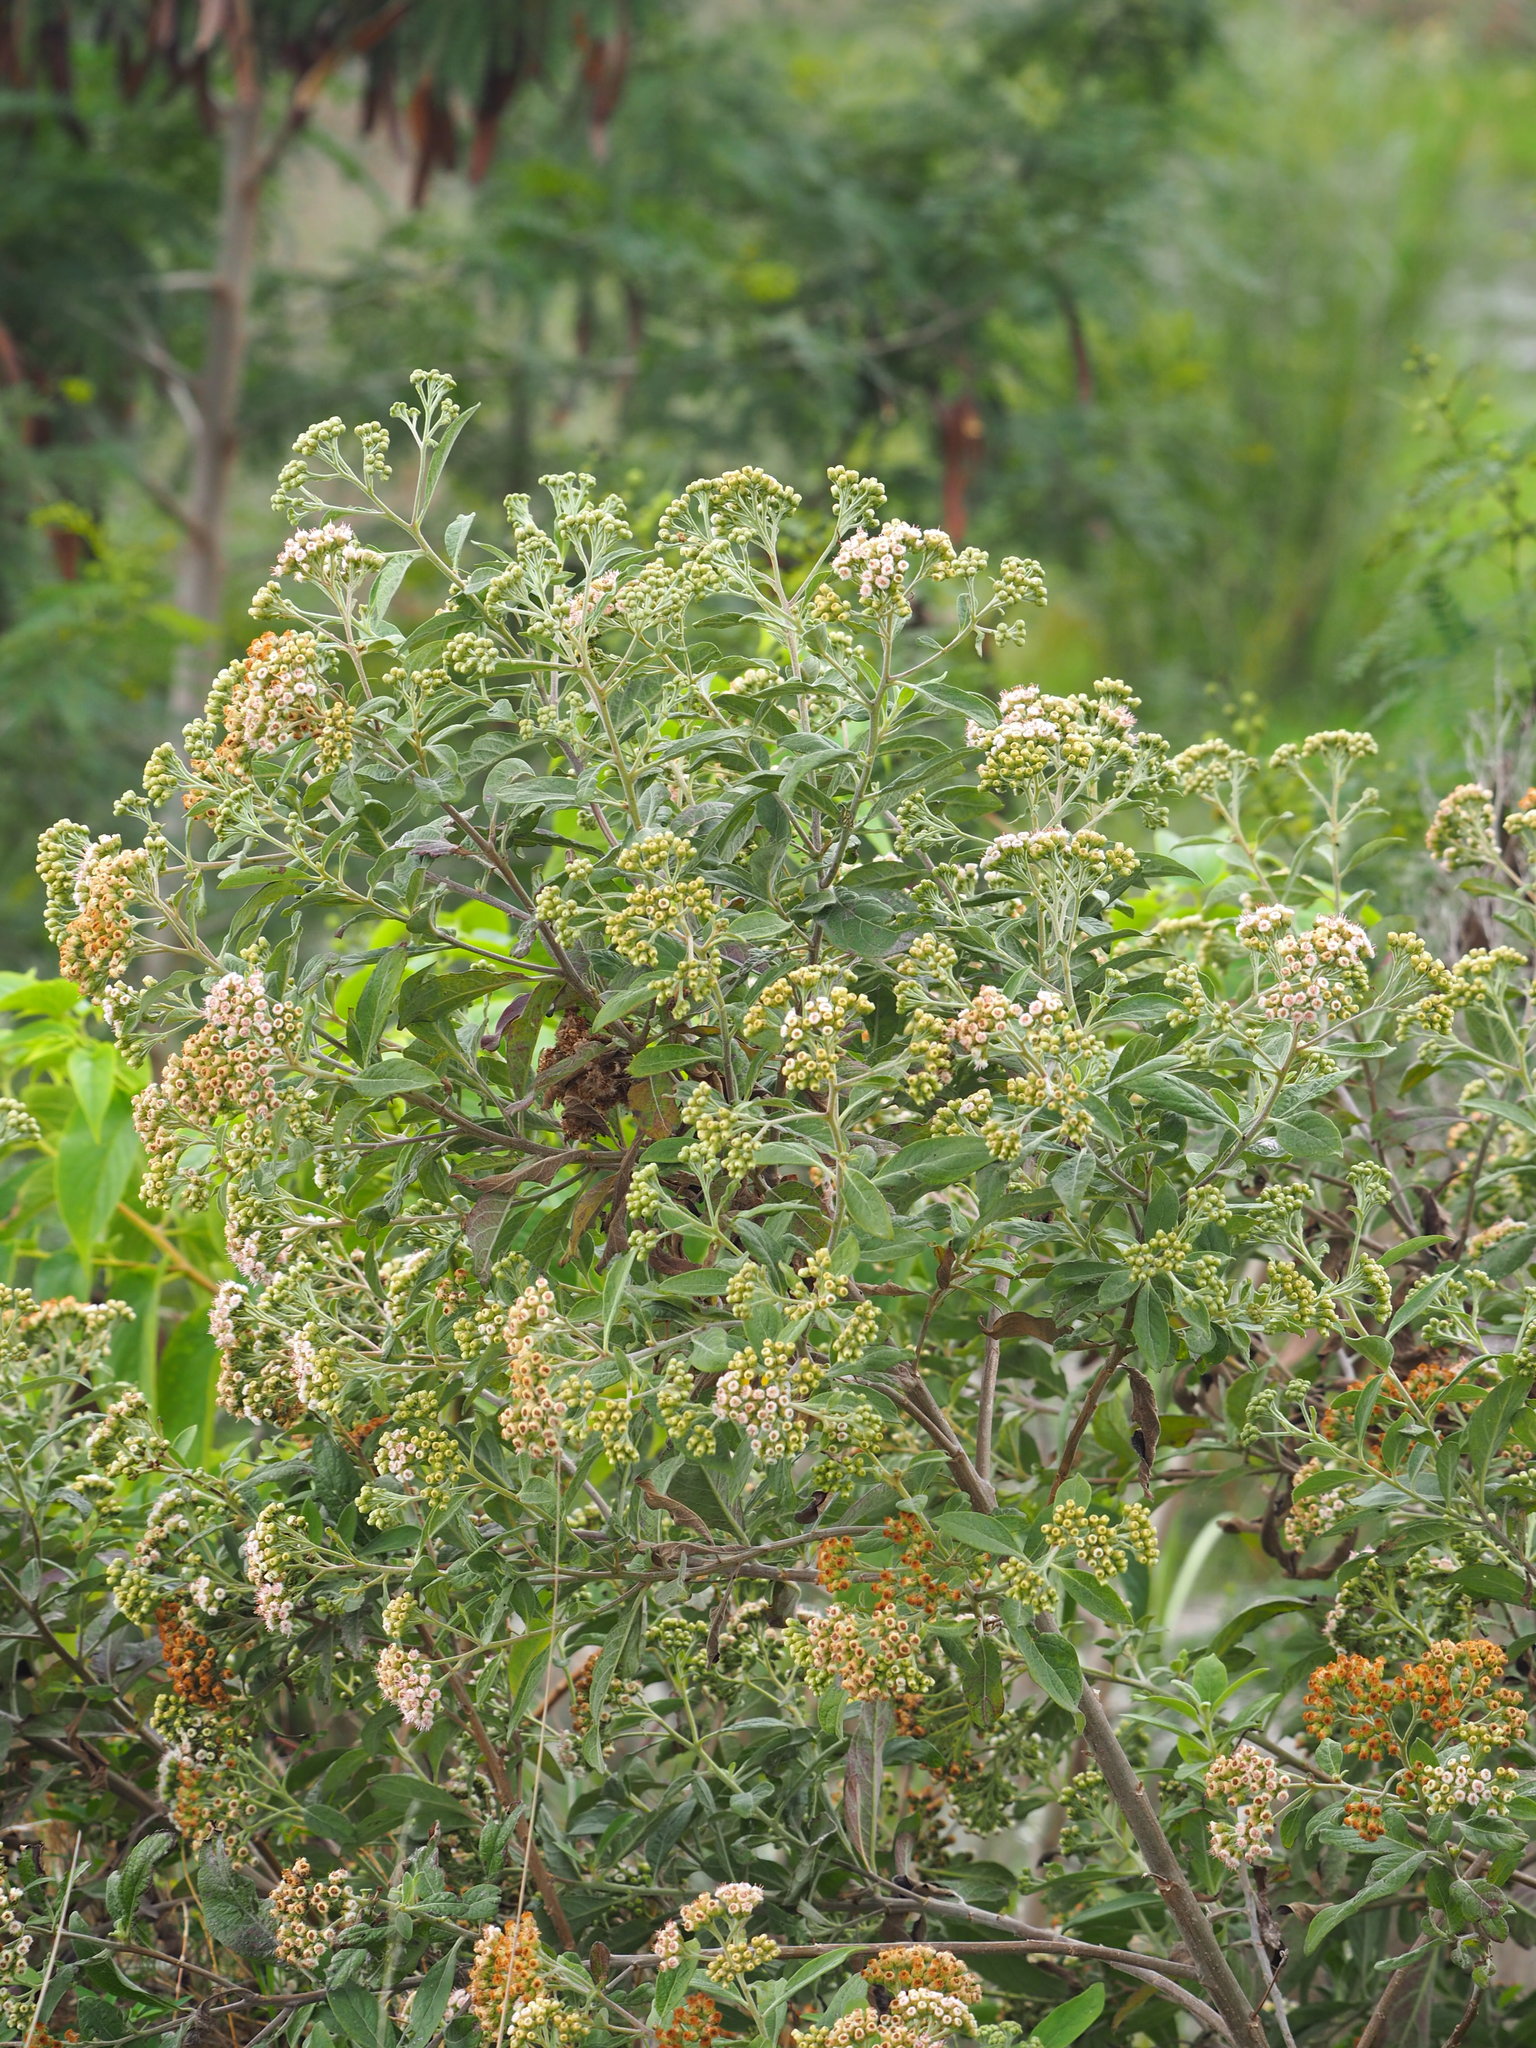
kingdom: Plantae
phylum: Tracheophyta
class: Magnoliopsida
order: Asterales
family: Asteraceae
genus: Pluchea
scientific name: Pluchea carolinensis
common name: Marsh fleabane
